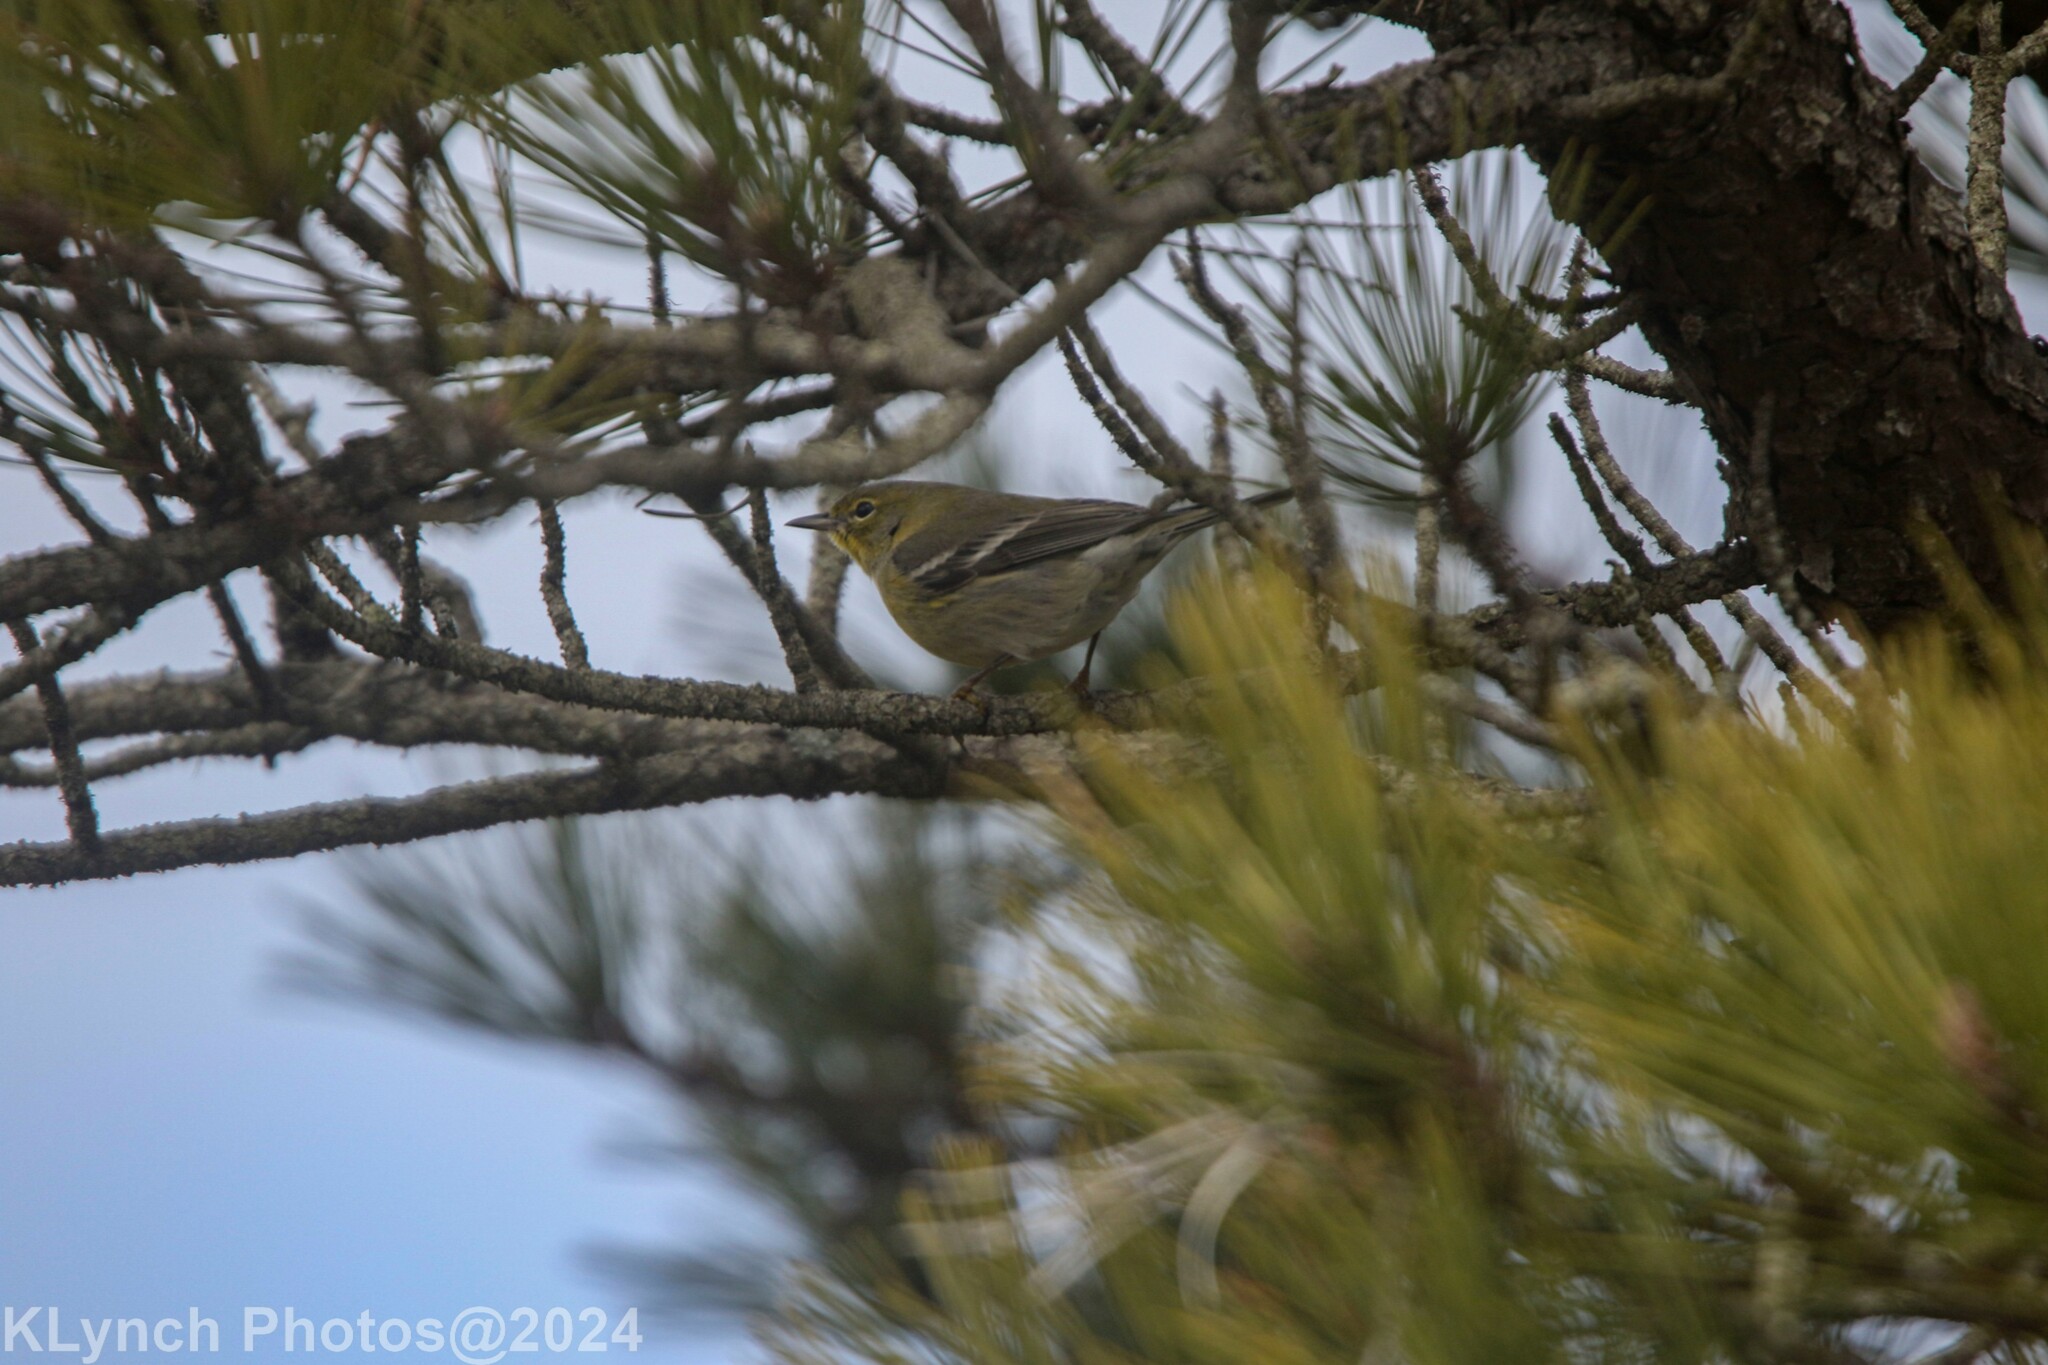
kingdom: Animalia
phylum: Chordata
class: Aves
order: Passeriformes
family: Parulidae
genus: Setophaga
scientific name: Setophaga pinus
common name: Pine warbler
